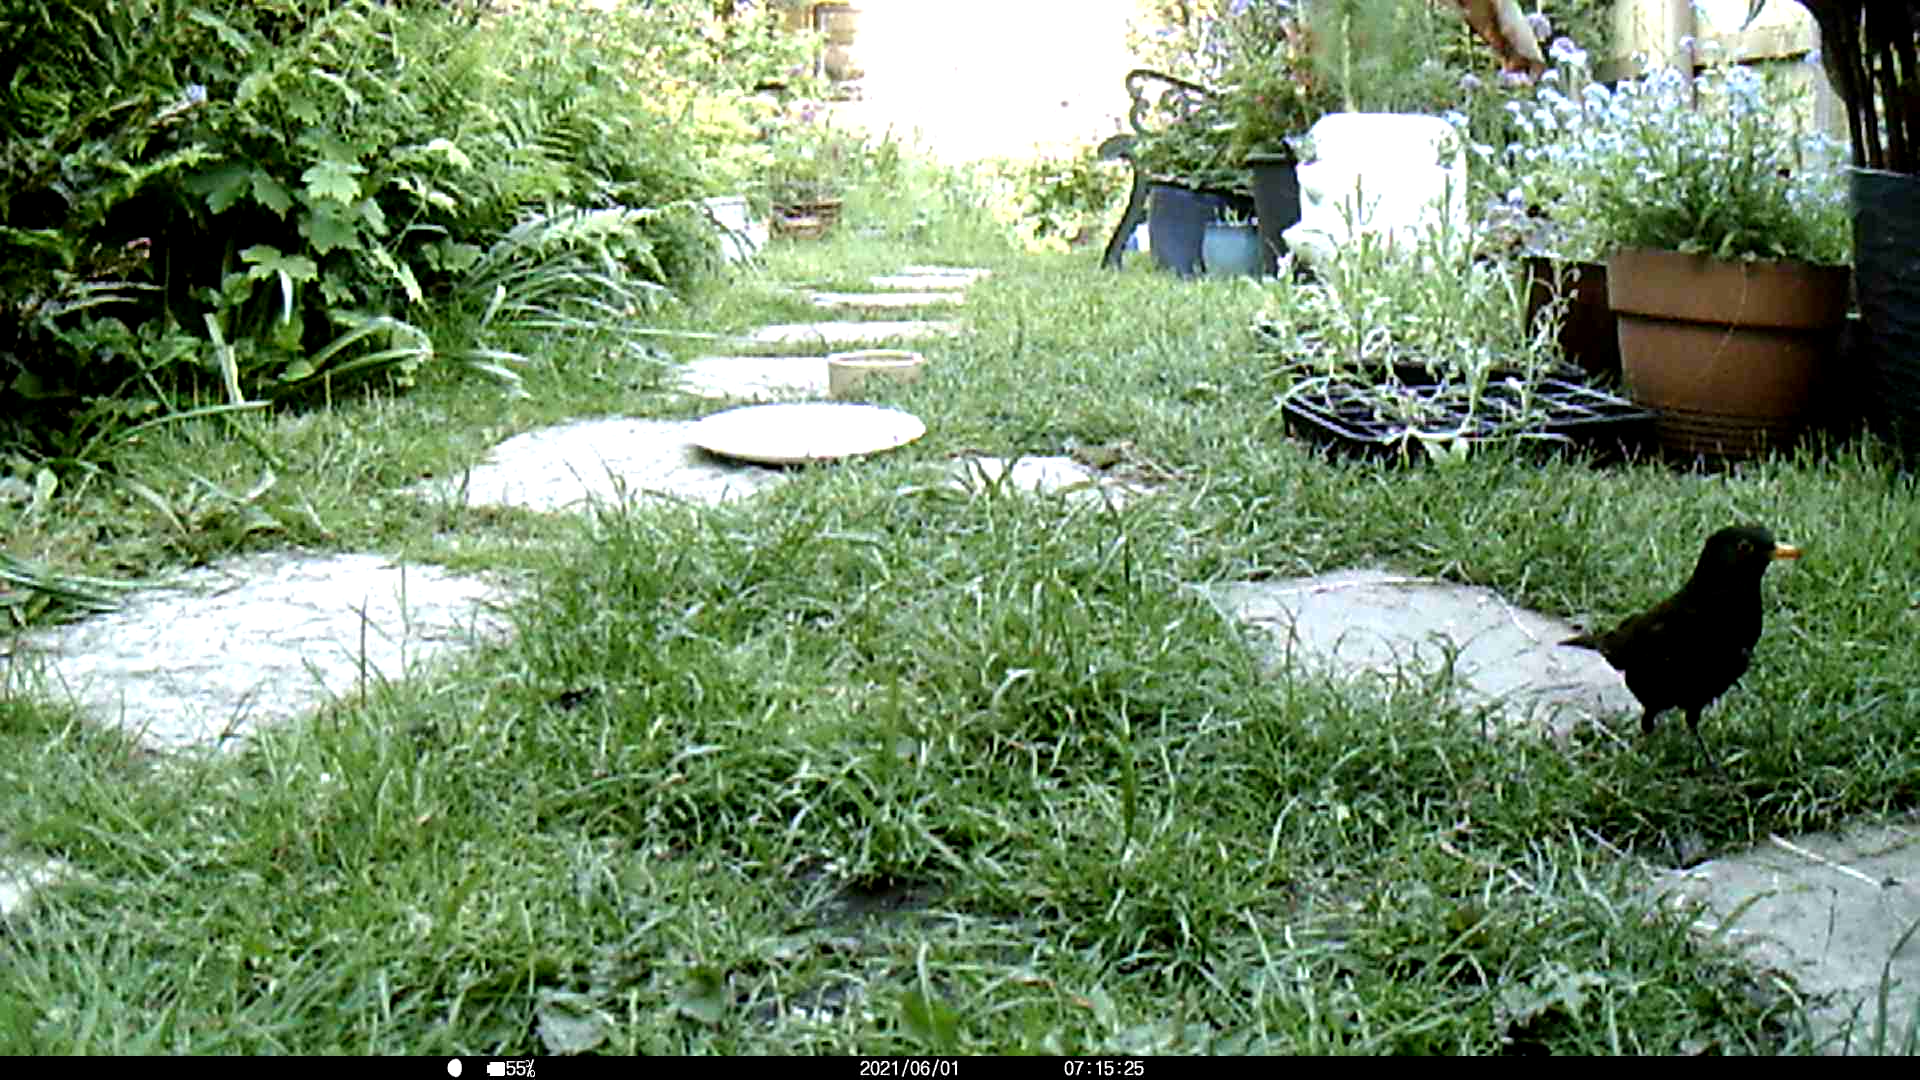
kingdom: Animalia
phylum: Chordata
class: Aves
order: Passeriformes
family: Turdidae
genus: Turdus
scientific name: Turdus merula
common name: Common blackbird
